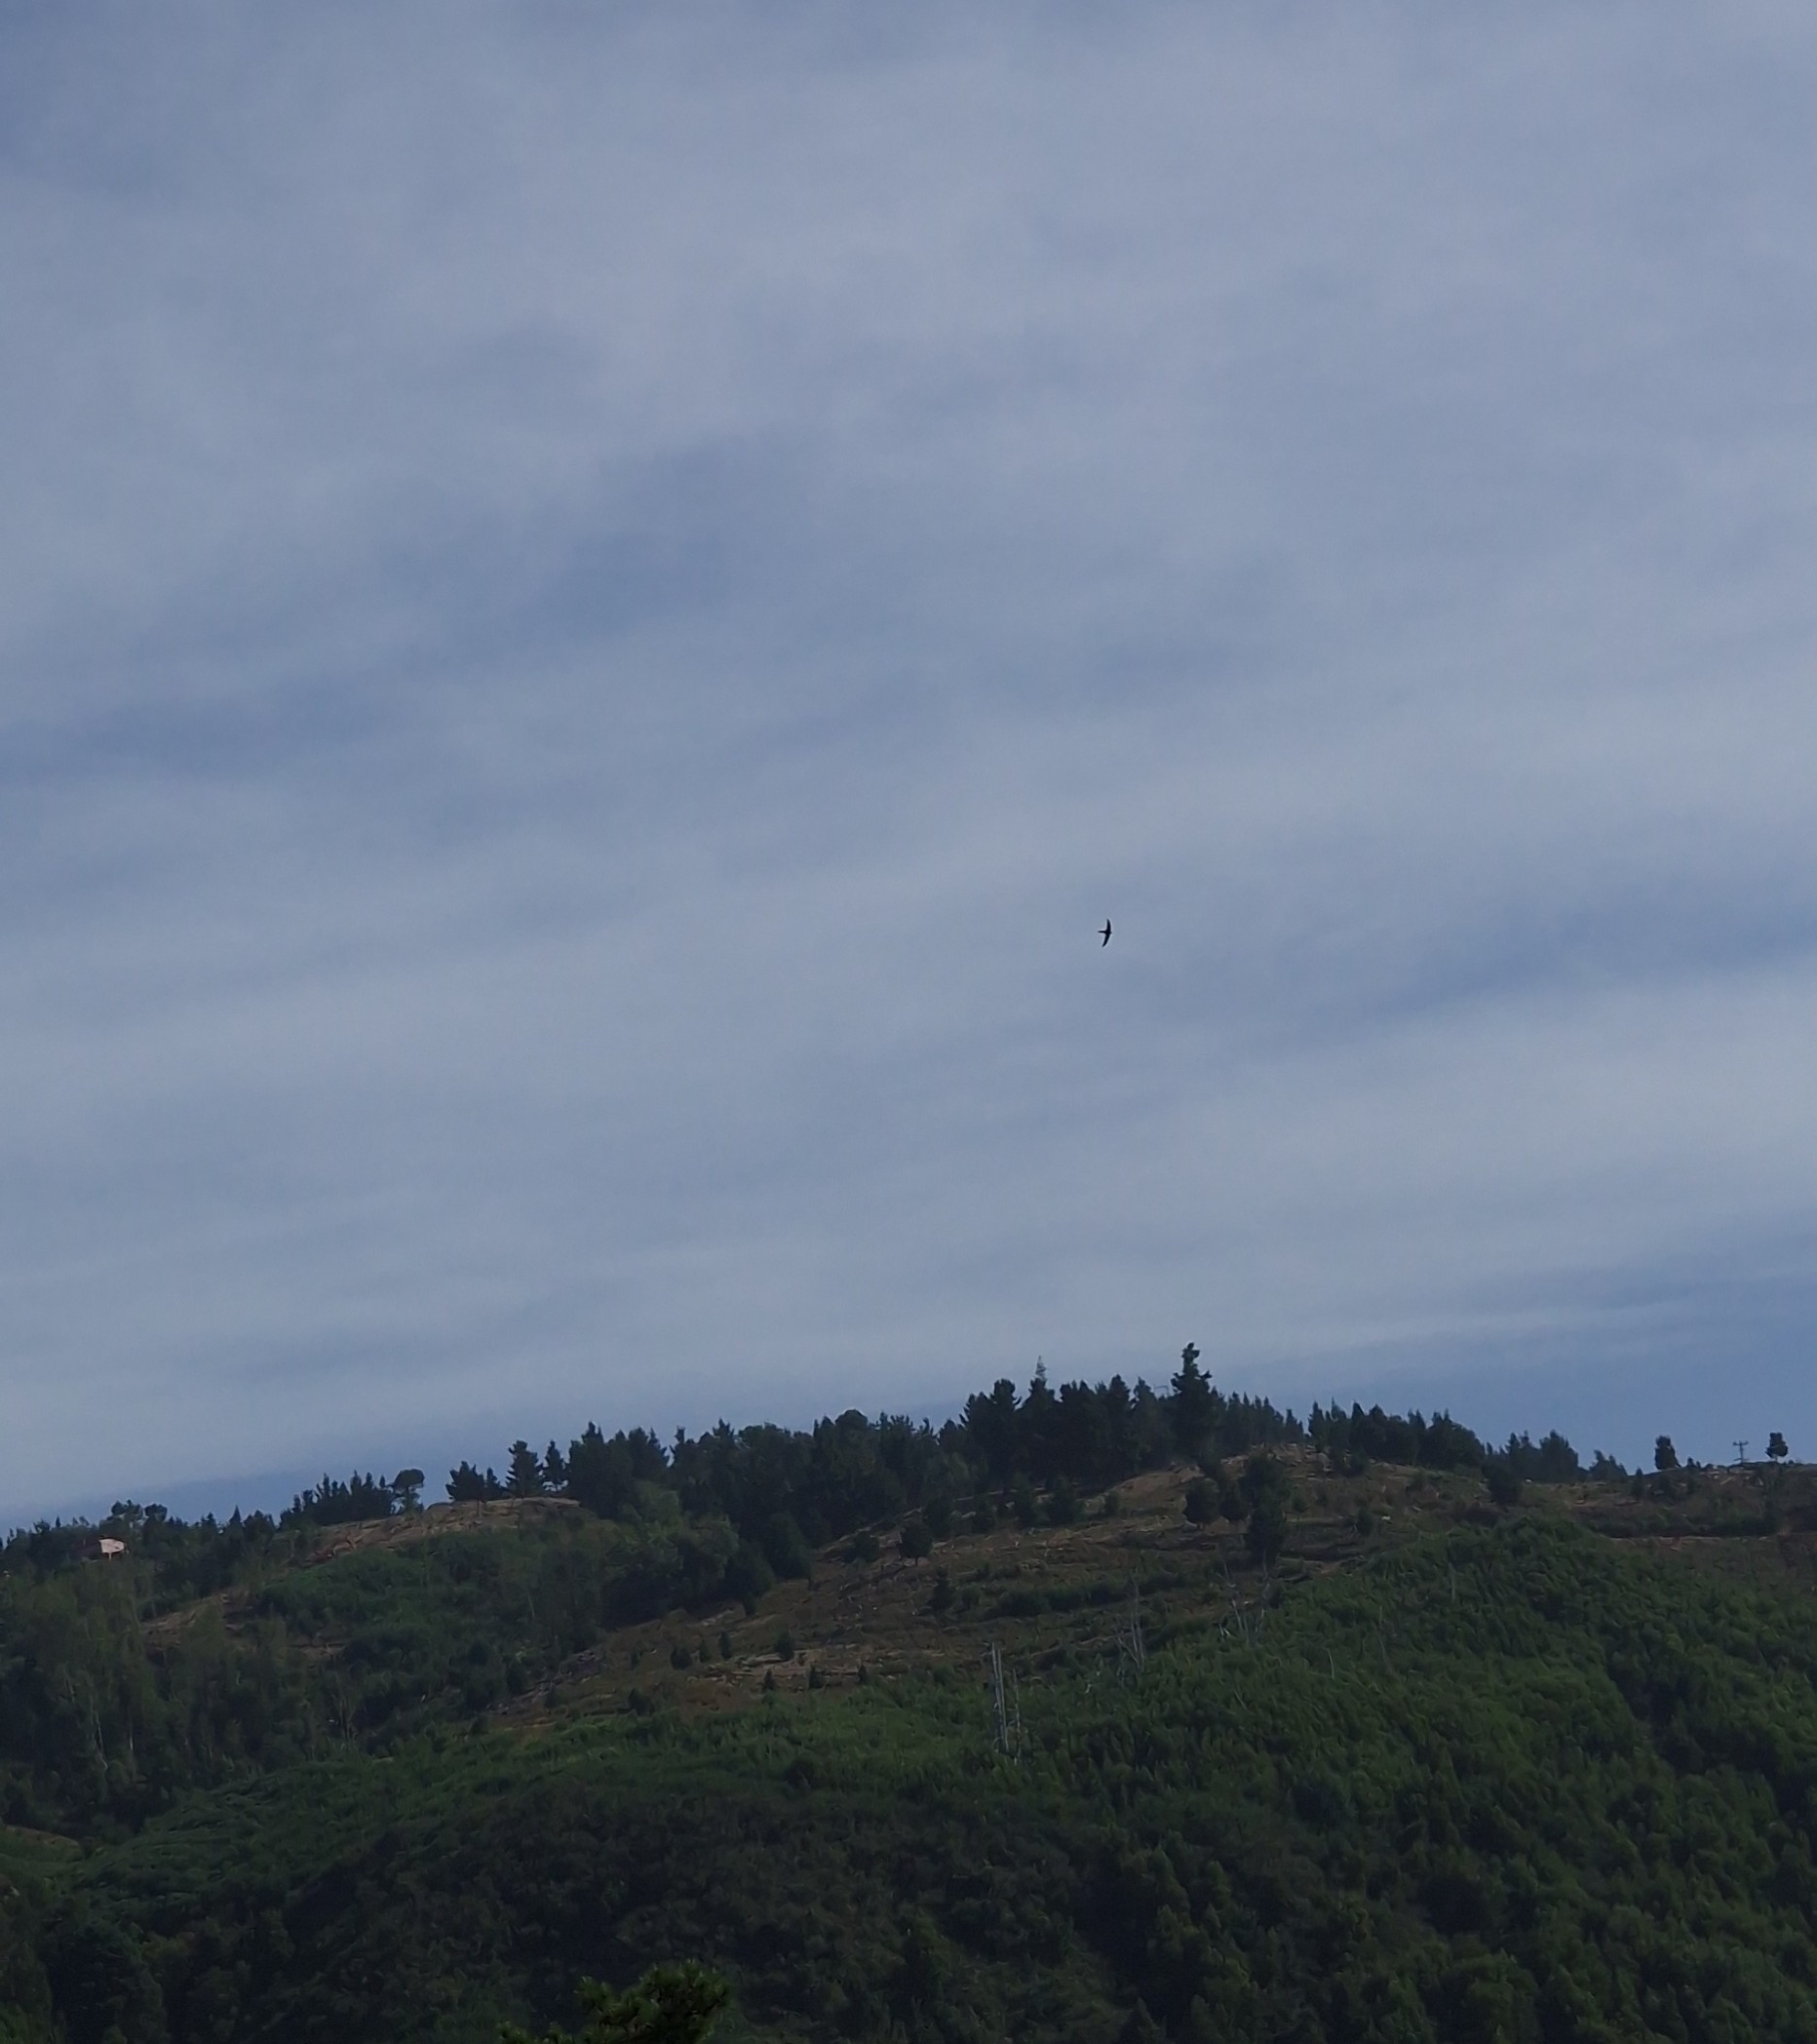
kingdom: Animalia
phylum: Chordata
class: Aves
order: Apodiformes
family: Apodidae
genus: Apus
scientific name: Apus unicolor
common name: Plain swift
